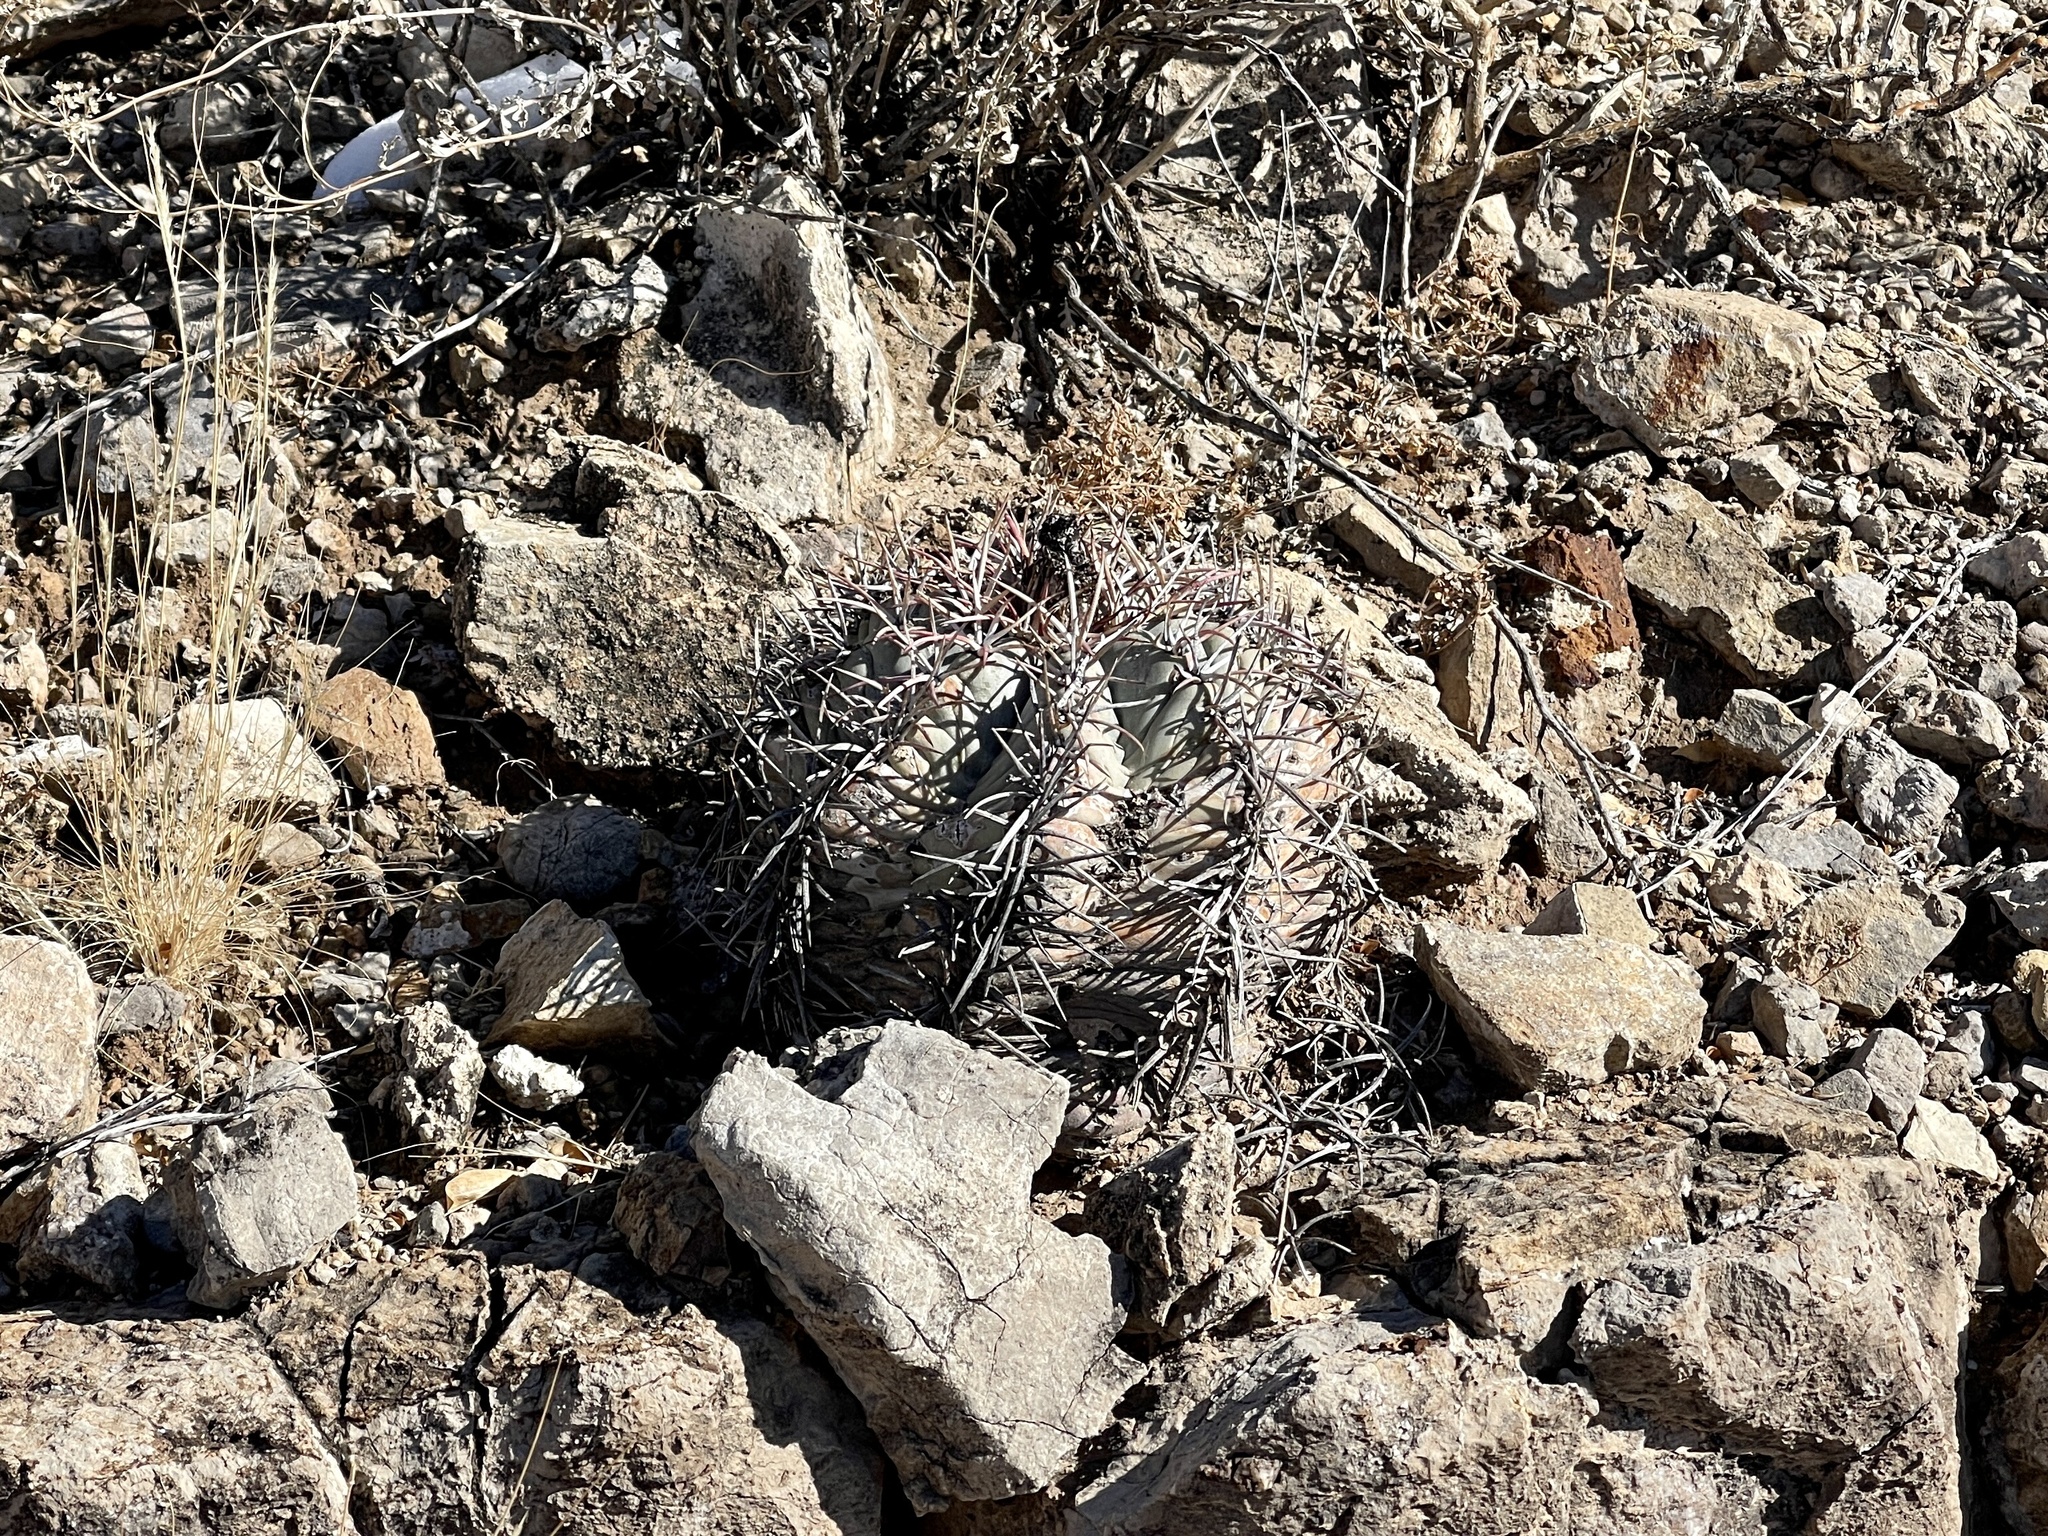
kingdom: Plantae
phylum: Tracheophyta
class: Magnoliopsida
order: Caryophyllales
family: Cactaceae
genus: Echinocactus
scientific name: Echinocactus horizonthalonius
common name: Devilshead
